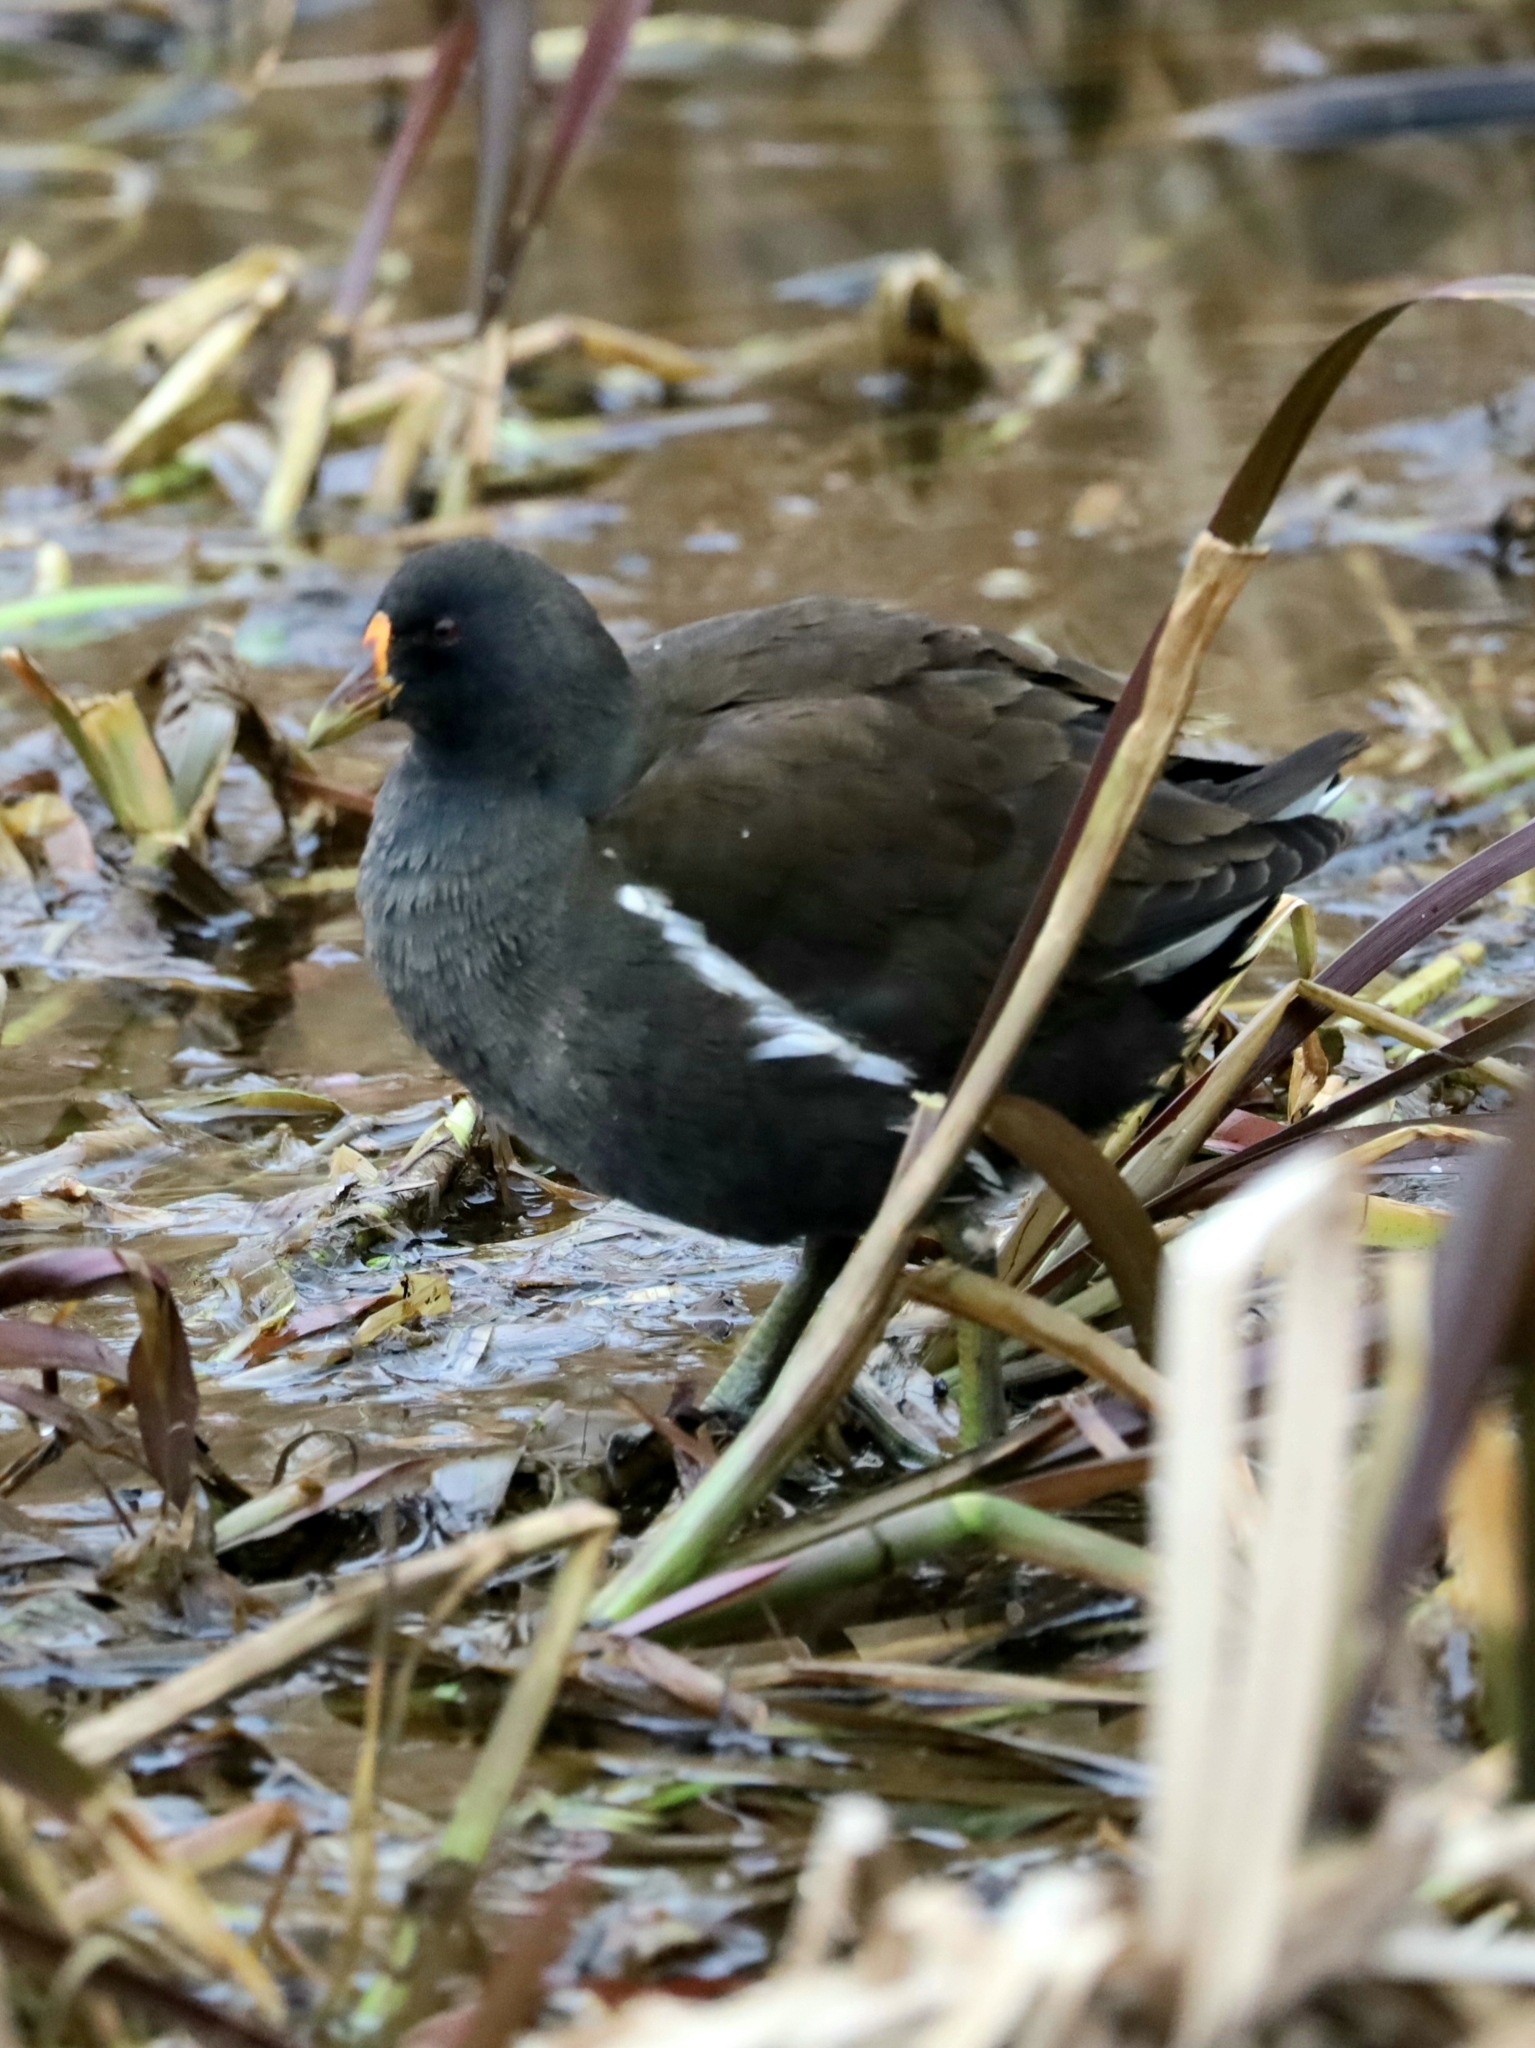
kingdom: Animalia
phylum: Chordata
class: Aves
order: Gruiformes
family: Rallidae
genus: Gallinula
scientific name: Gallinula chloropus
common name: Common moorhen
